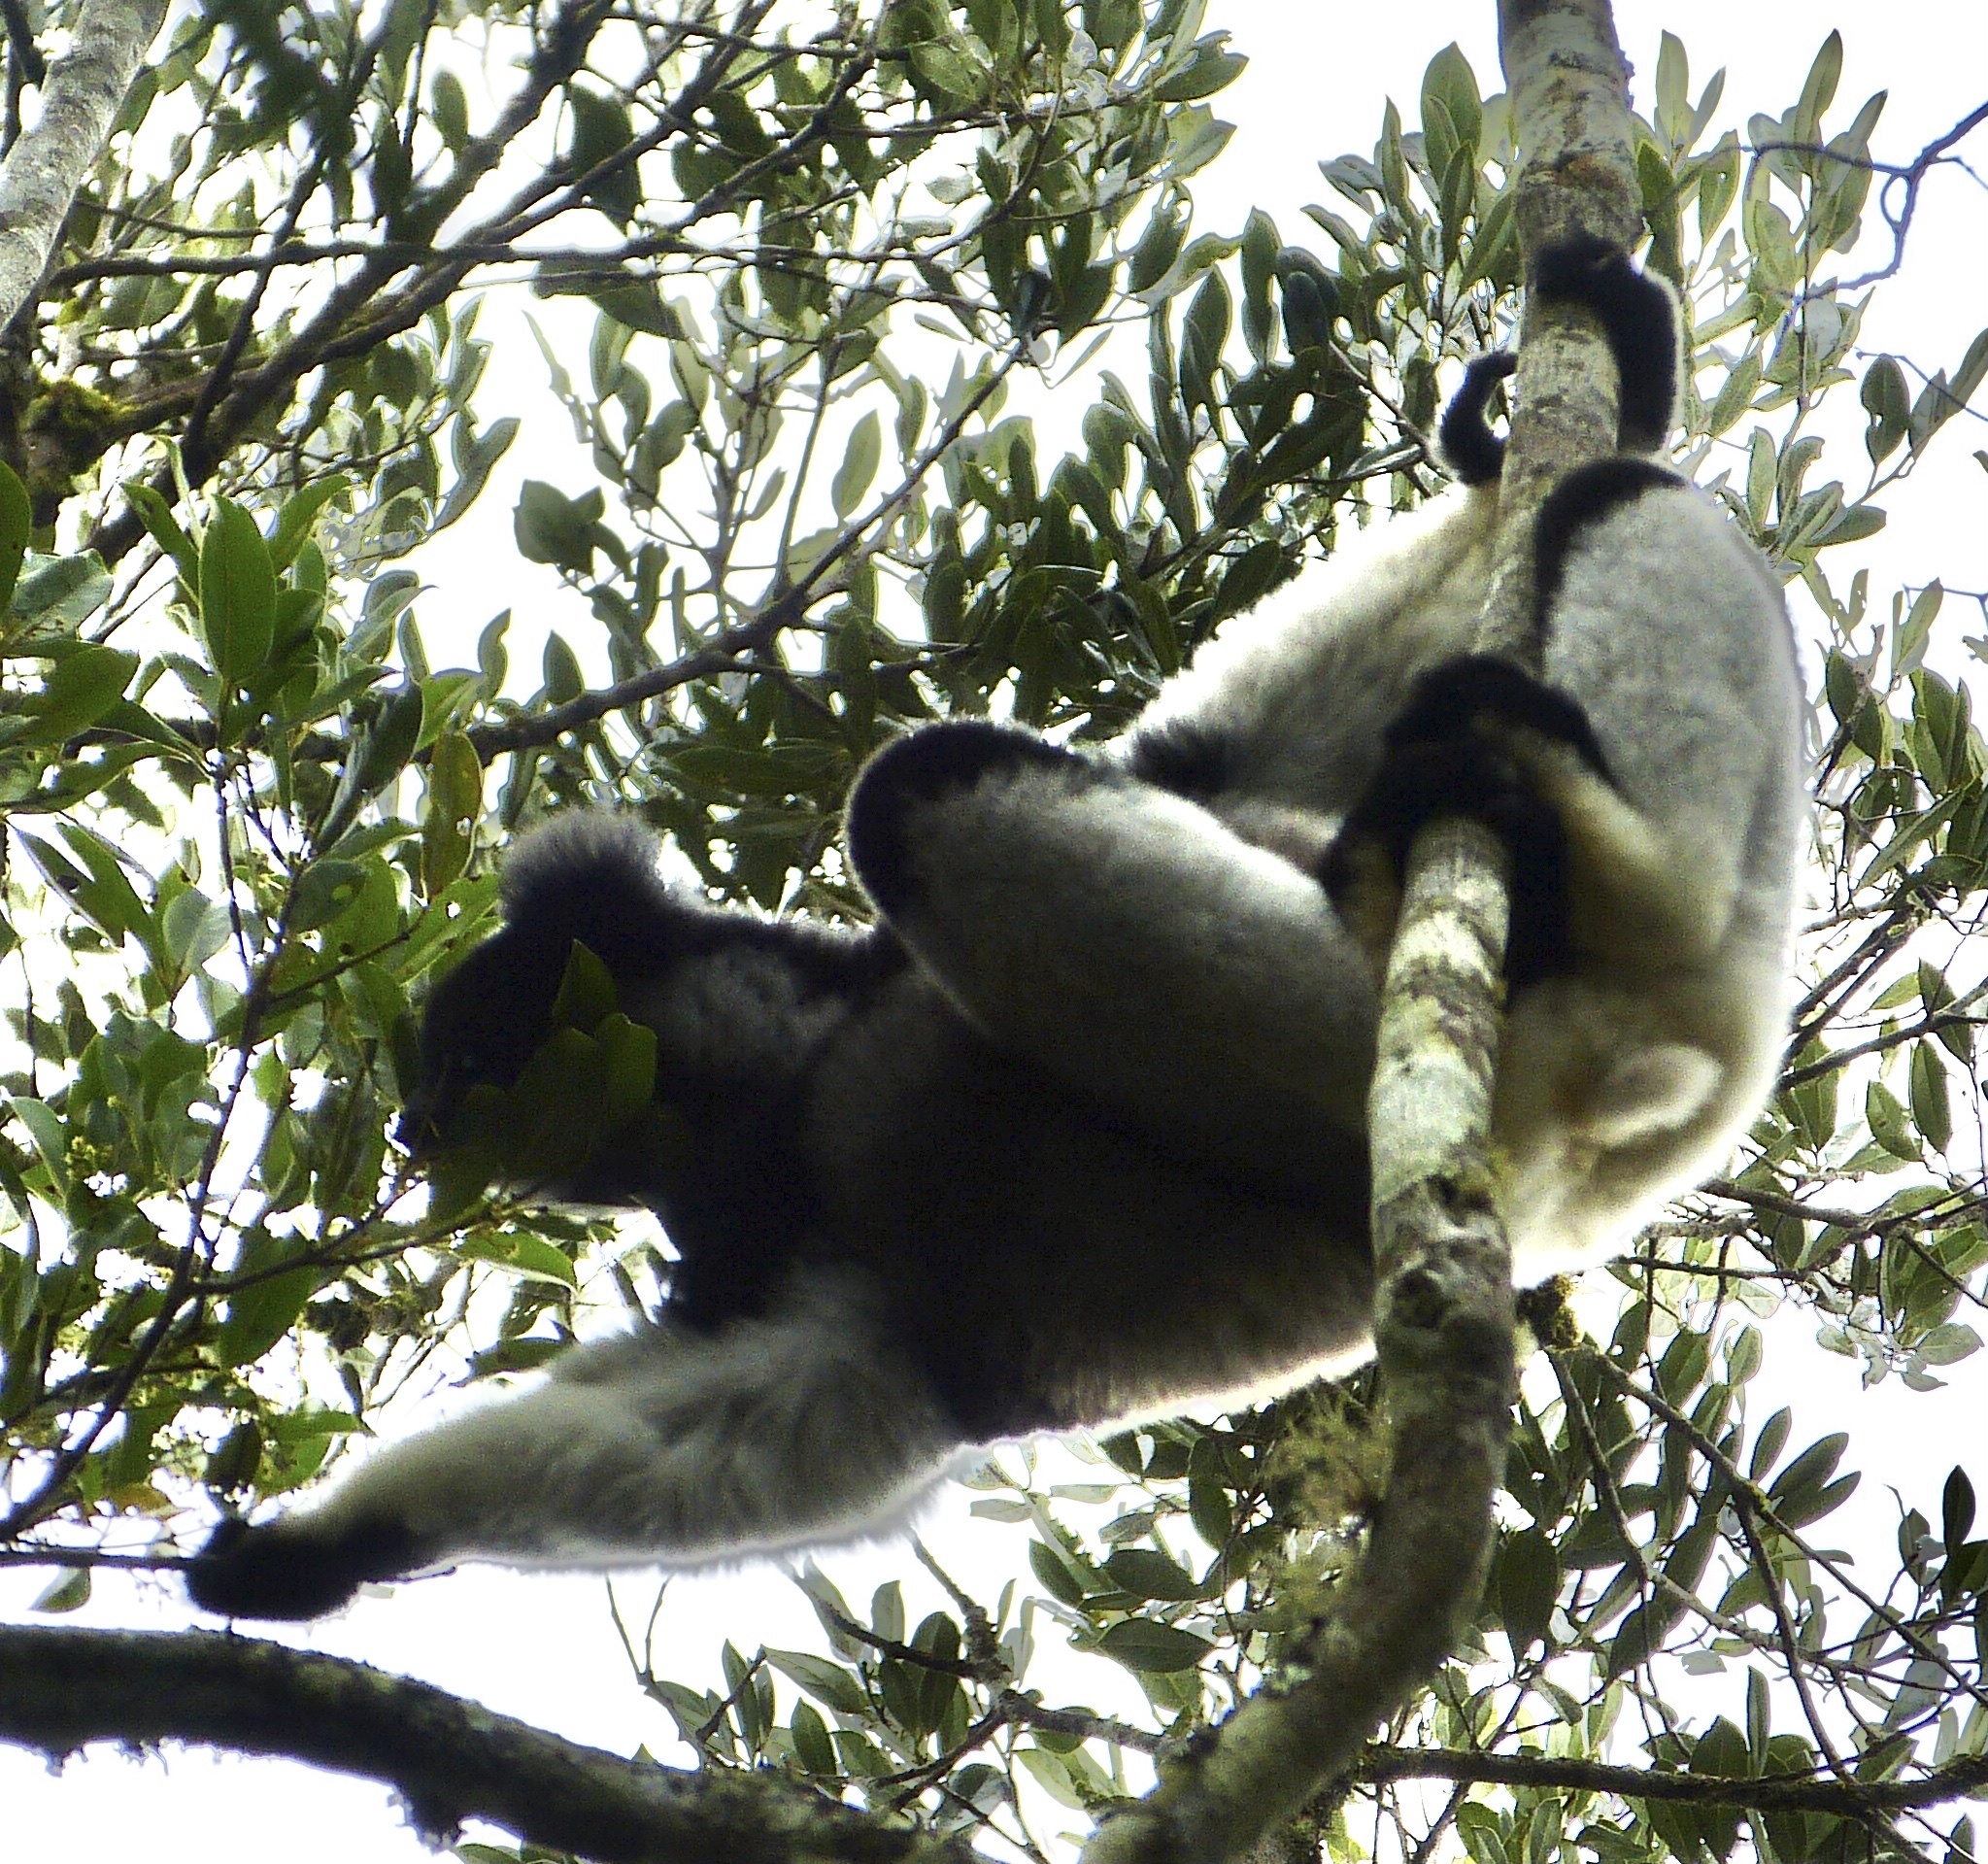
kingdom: Animalia
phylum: Chordata
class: Mammalia
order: Primates
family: Indriidae
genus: Indri
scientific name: Indri indri
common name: Indri
